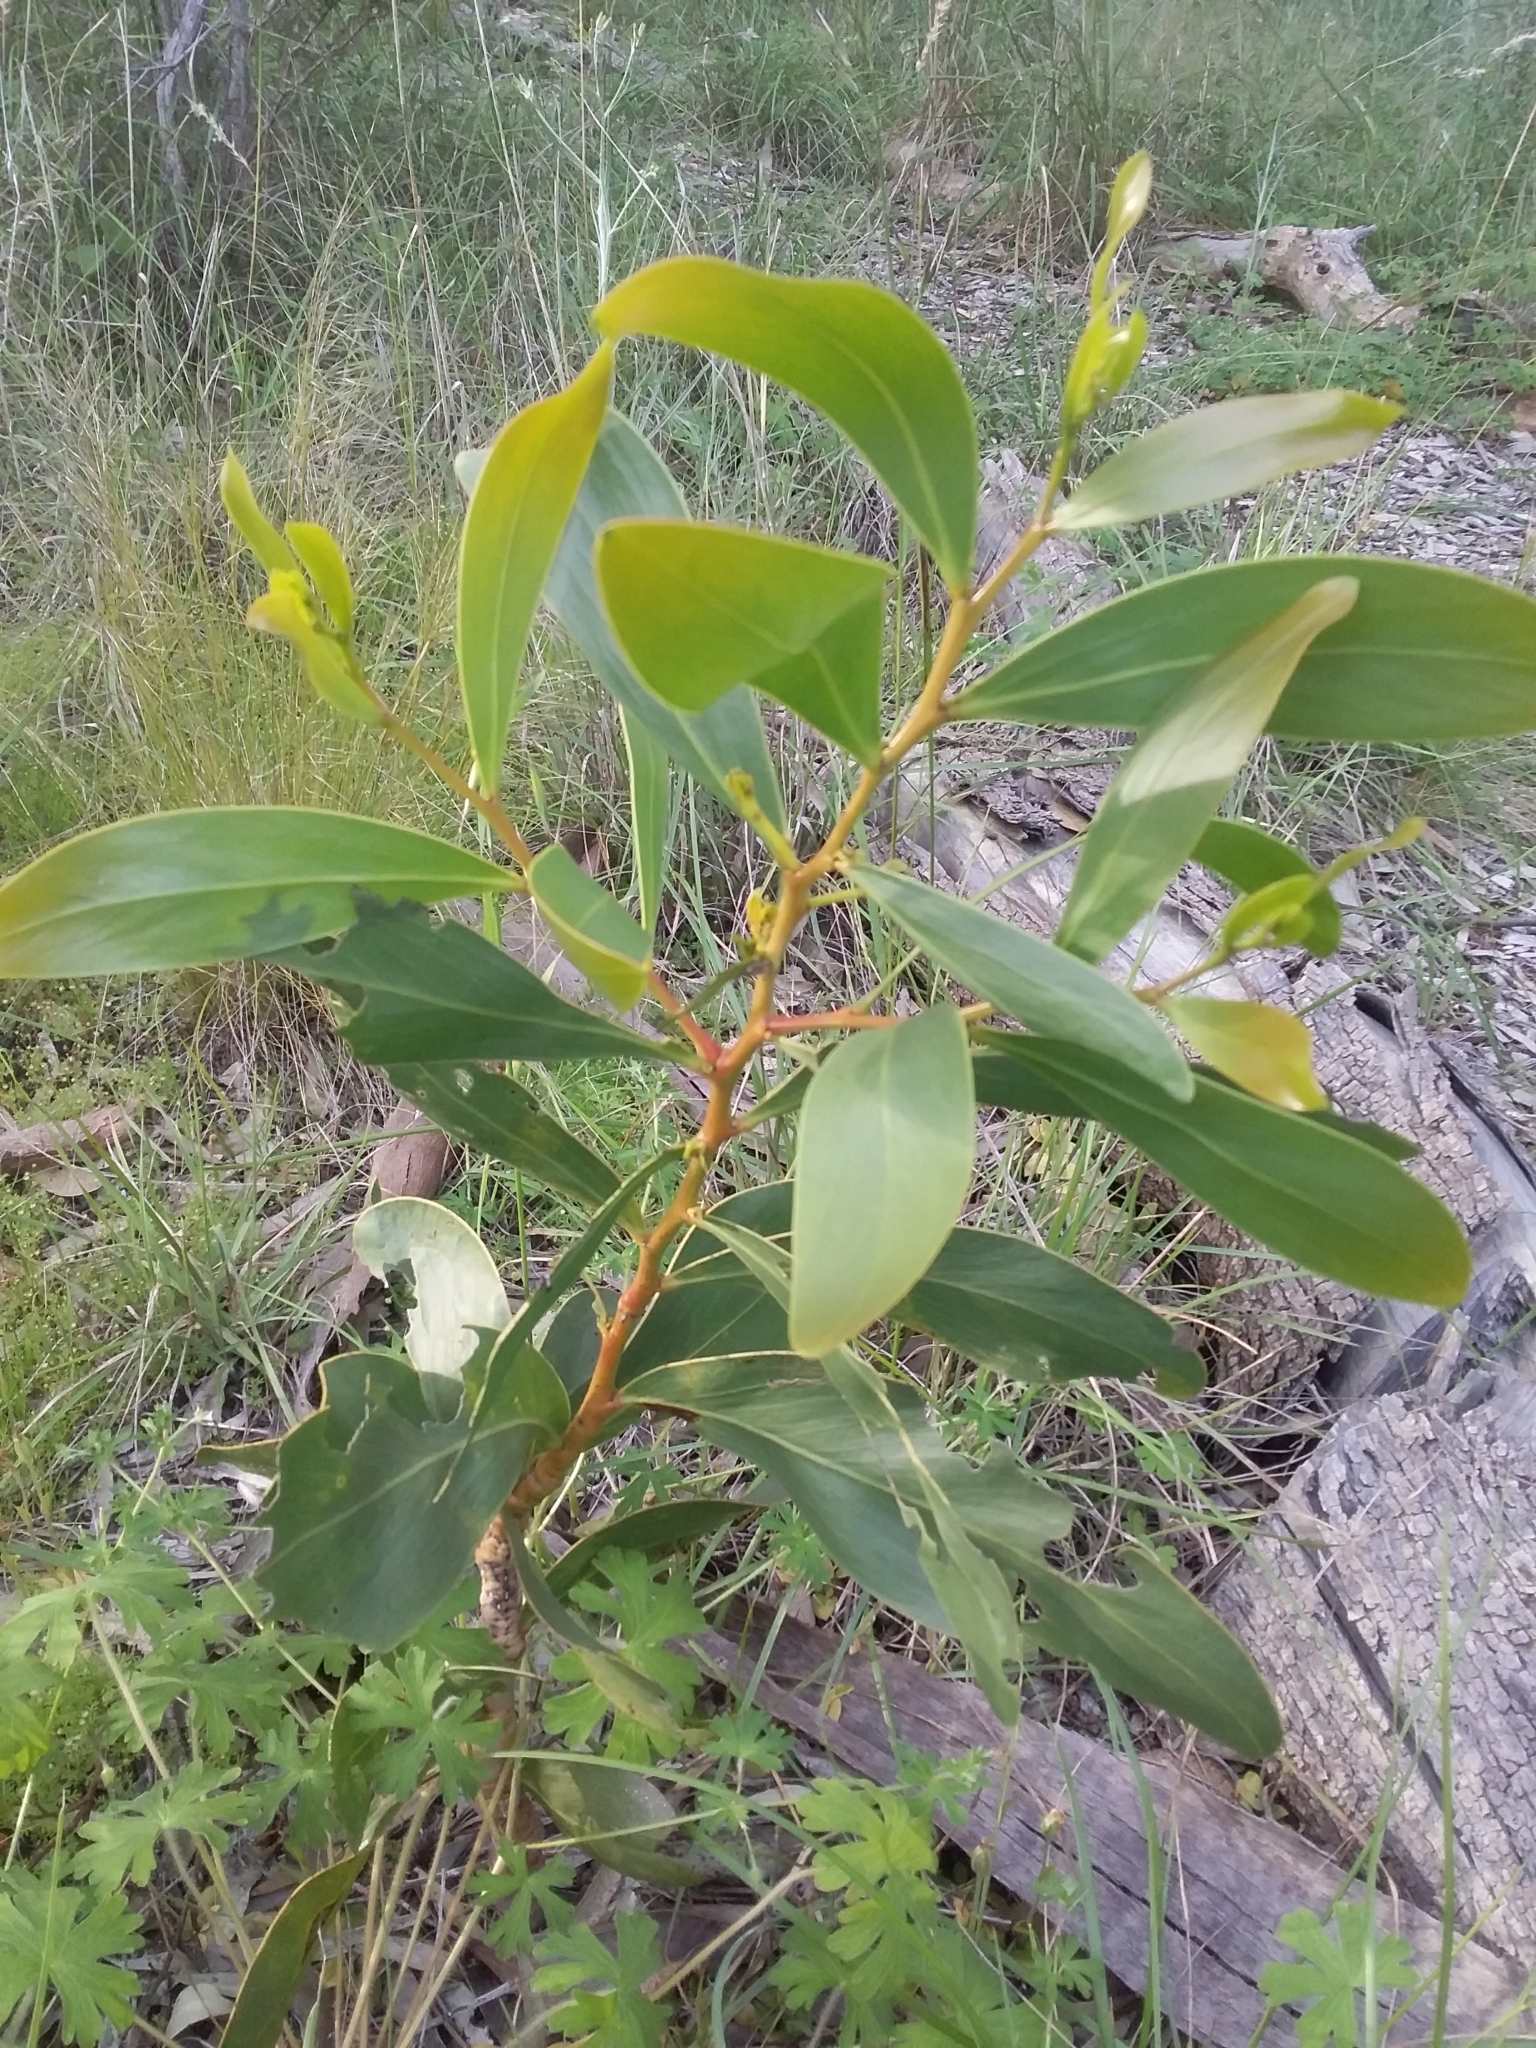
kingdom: Plantae
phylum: Tracheophyta
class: Magnoliopsida
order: Fabales
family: Fabaceae
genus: Acacia
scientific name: Acacia pycnantha
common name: Golden wattle
